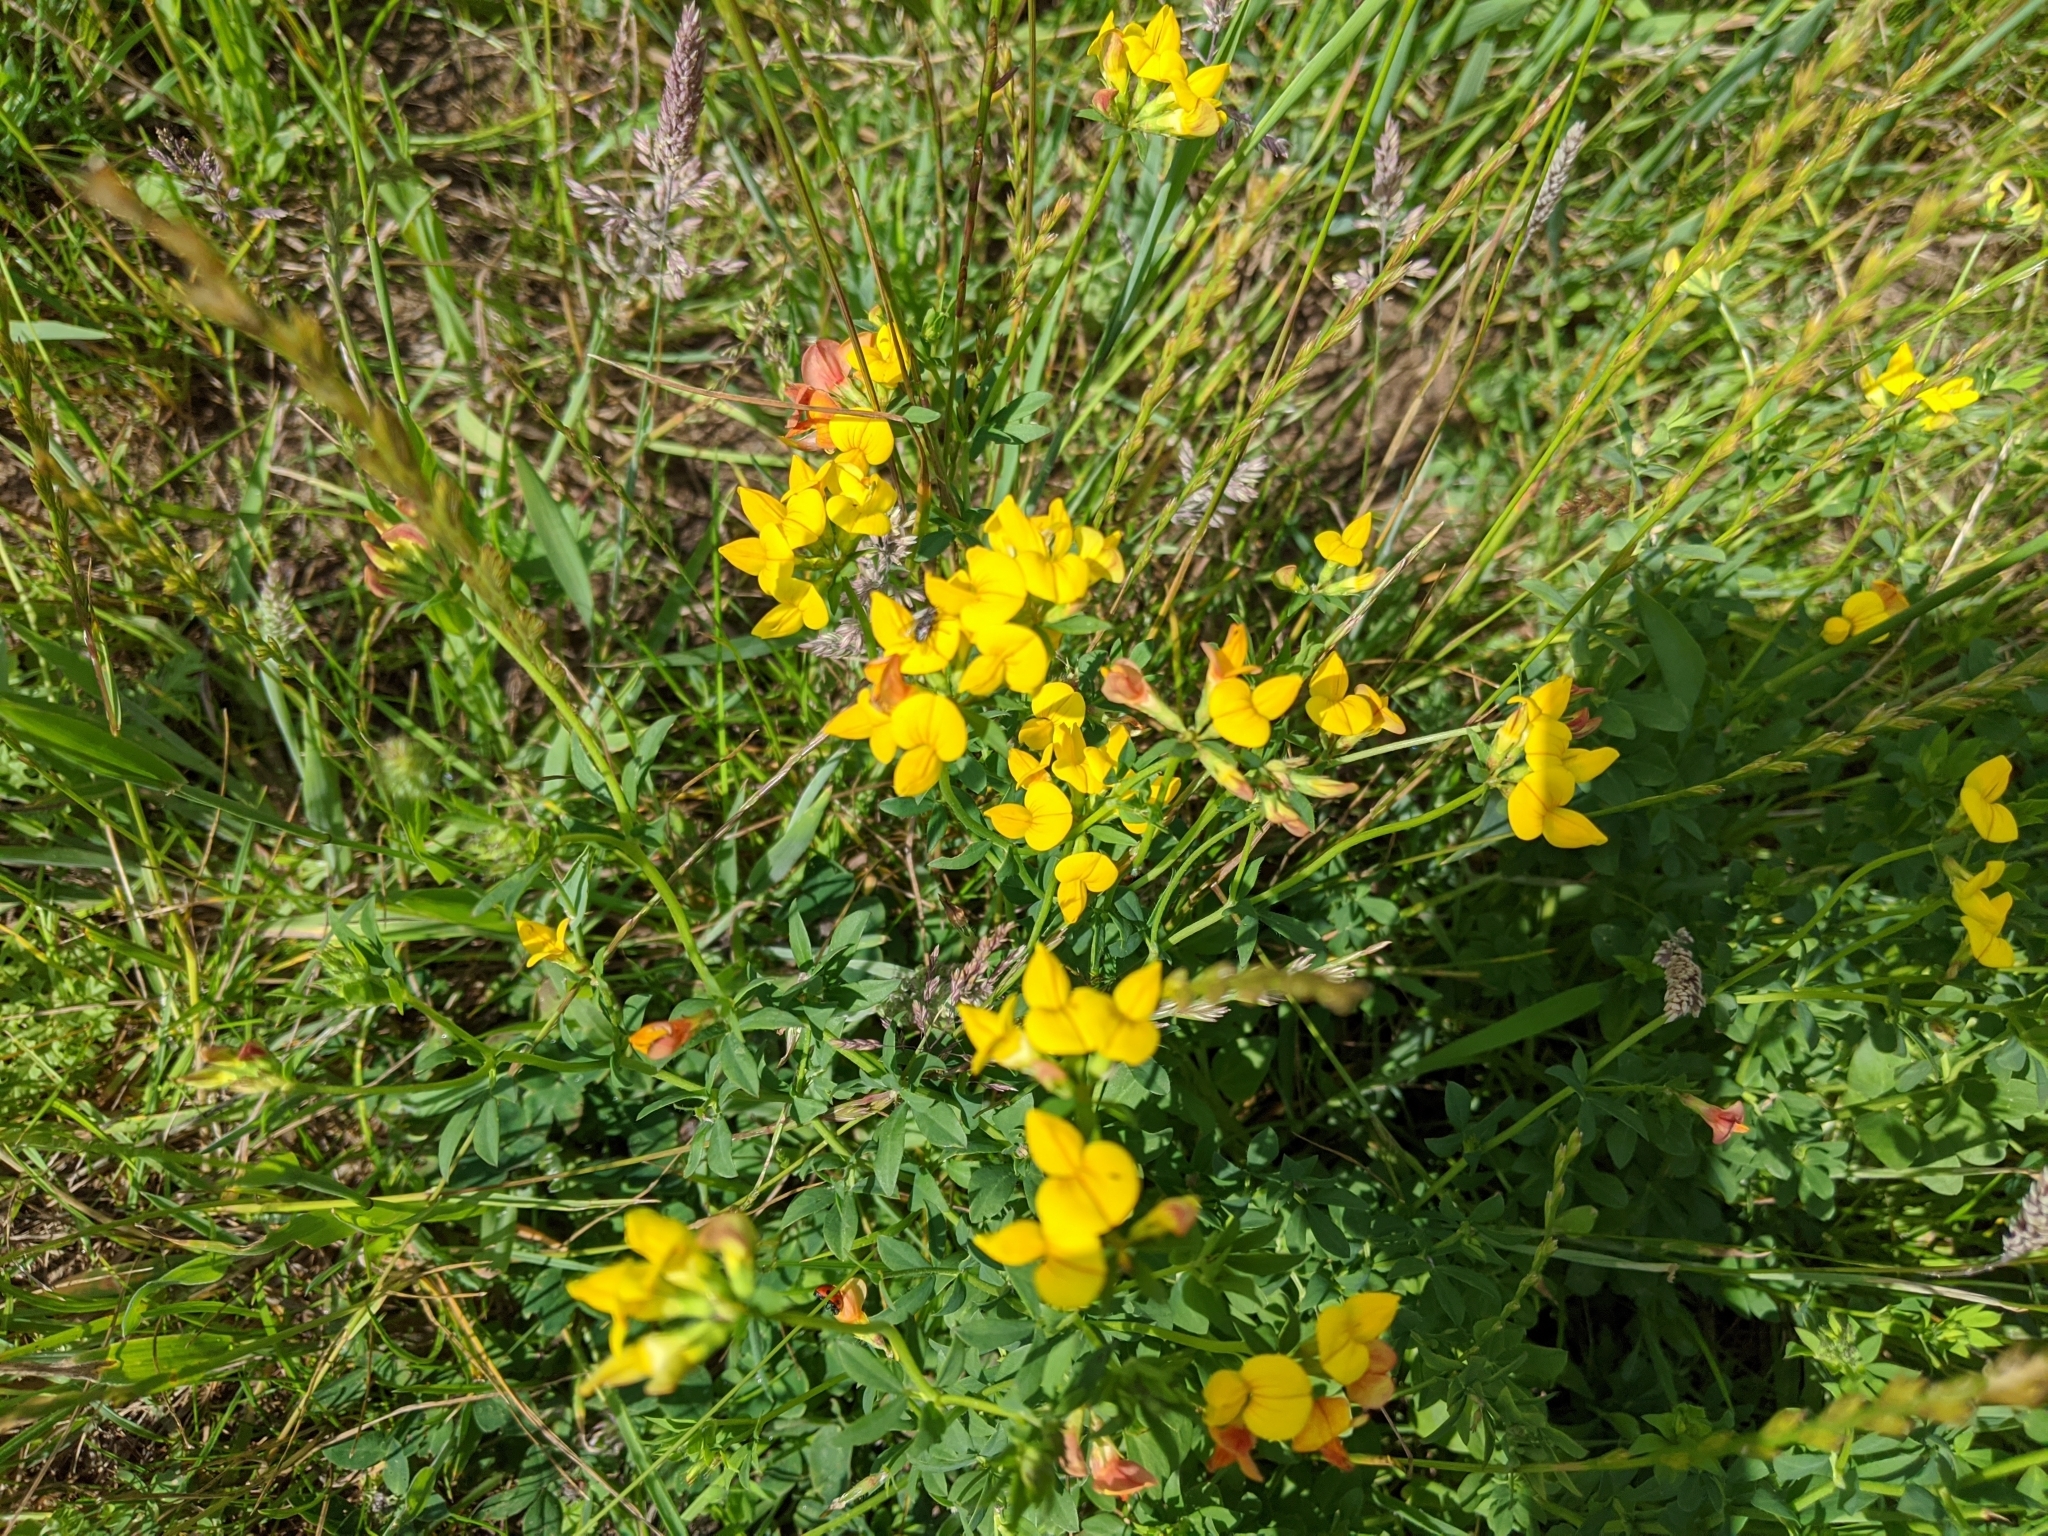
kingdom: Plantae
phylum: Tracheophyta
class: Magnoliopsida
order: Fabales
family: Fabaceae
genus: Lotus
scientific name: Lotus corniculatus
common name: Common bird's-foot-trefoil
